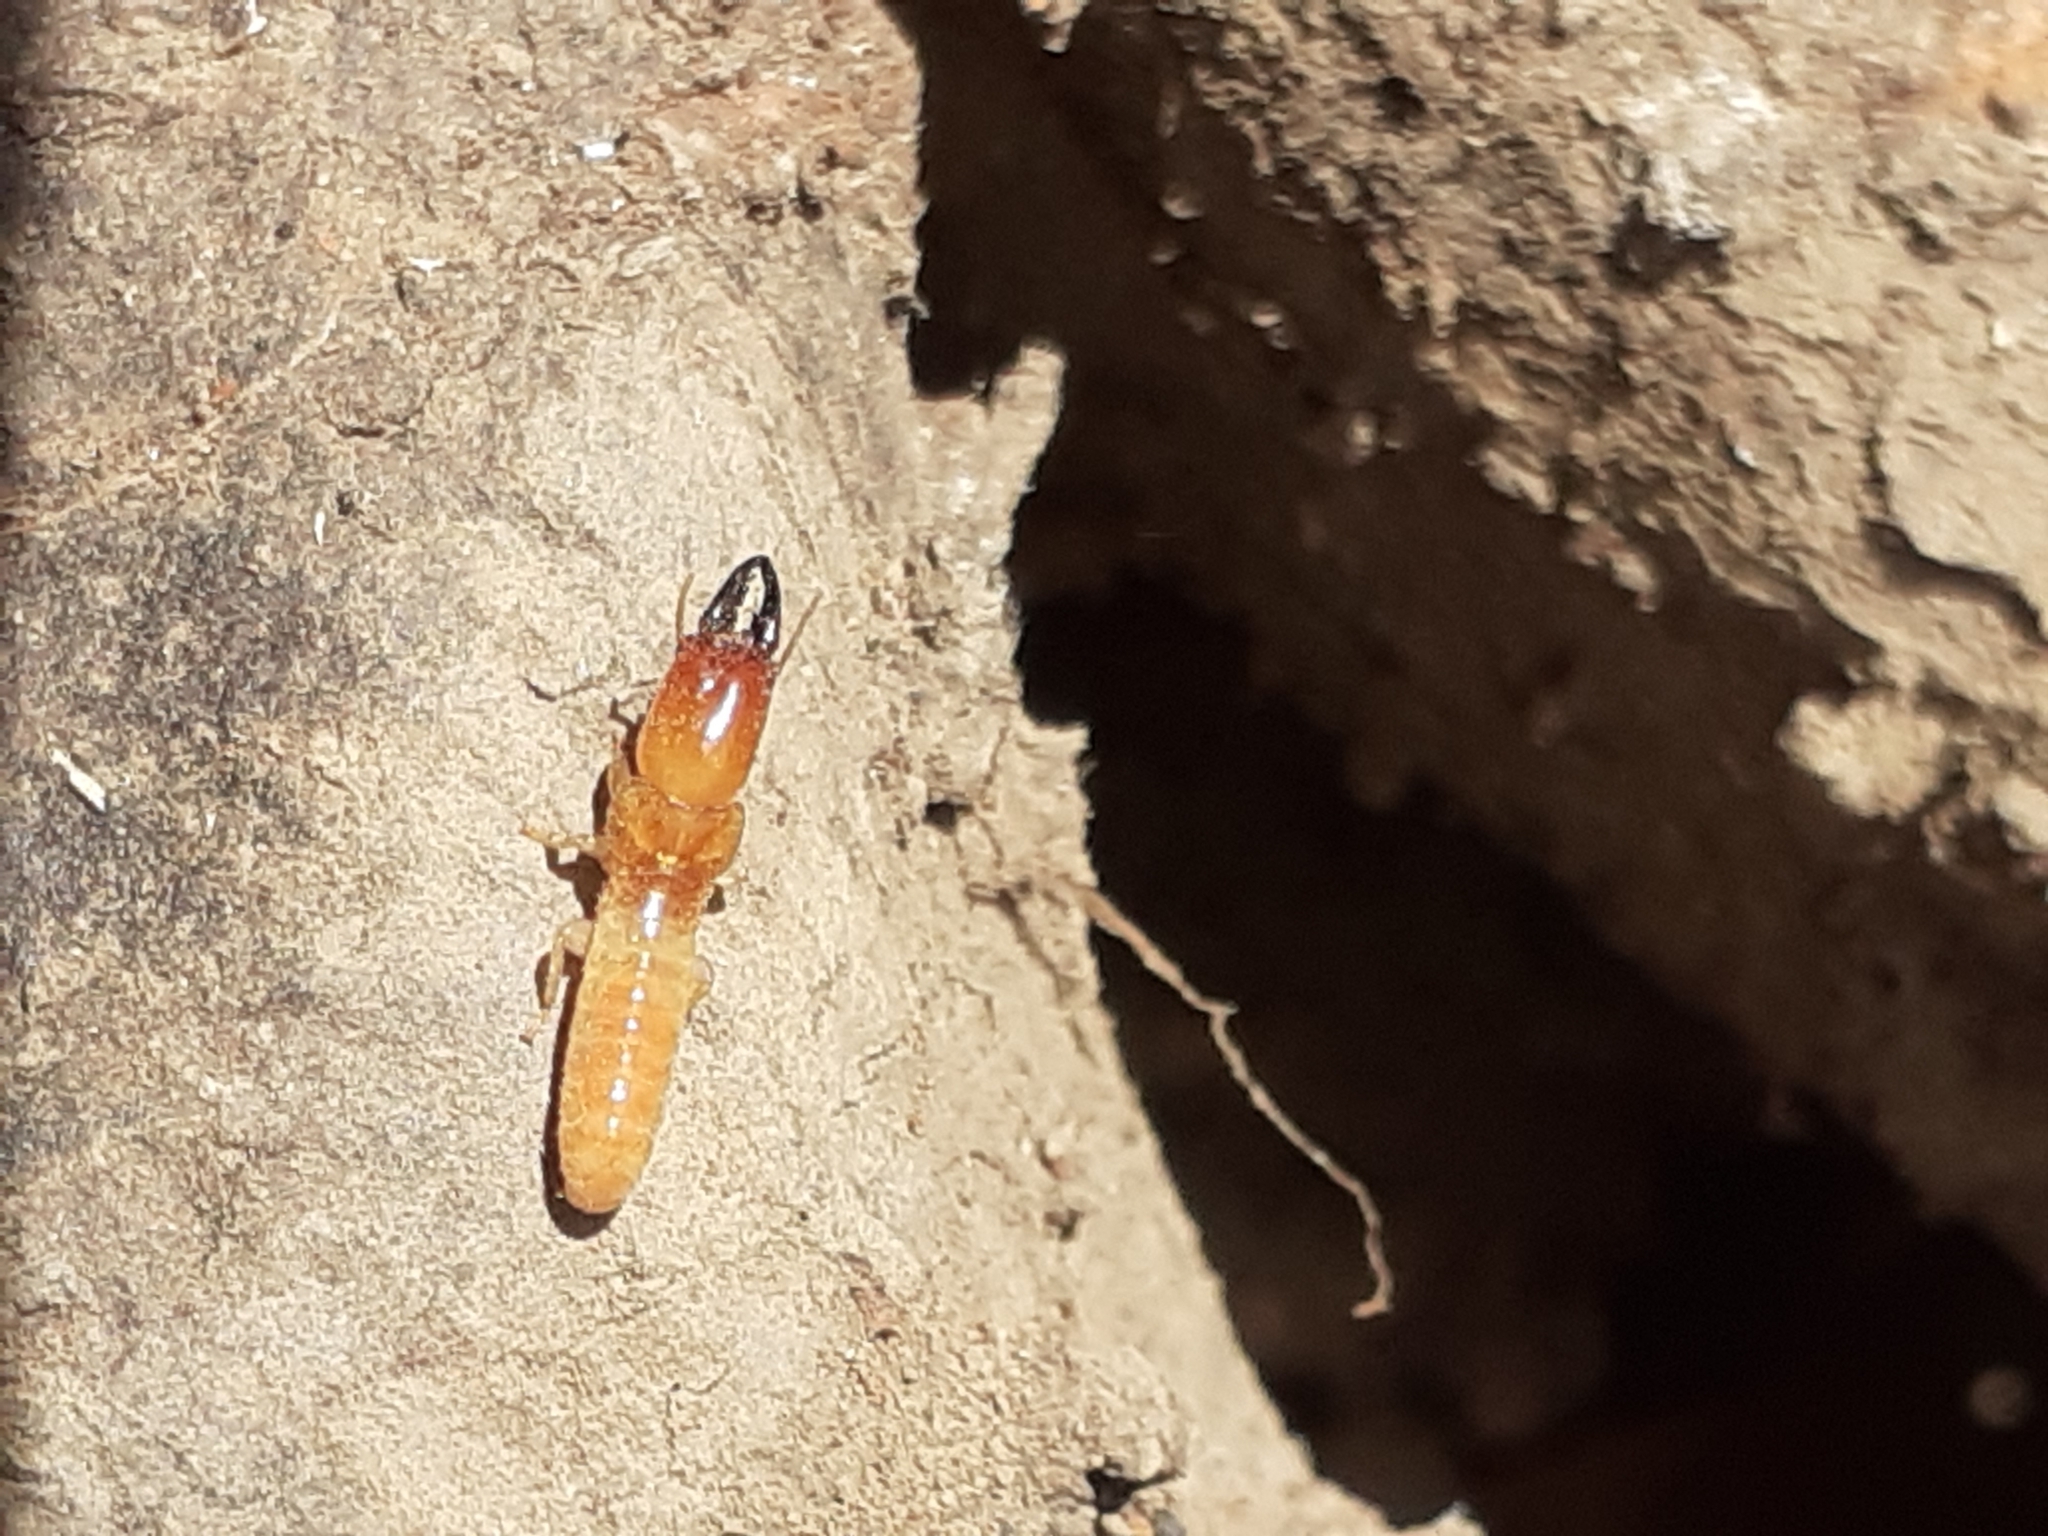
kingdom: Animalia
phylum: Arthropoda
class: Insecta
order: Blattodea
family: Kalotermitidae
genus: Kalotermes
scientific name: Kalotermes dispar
